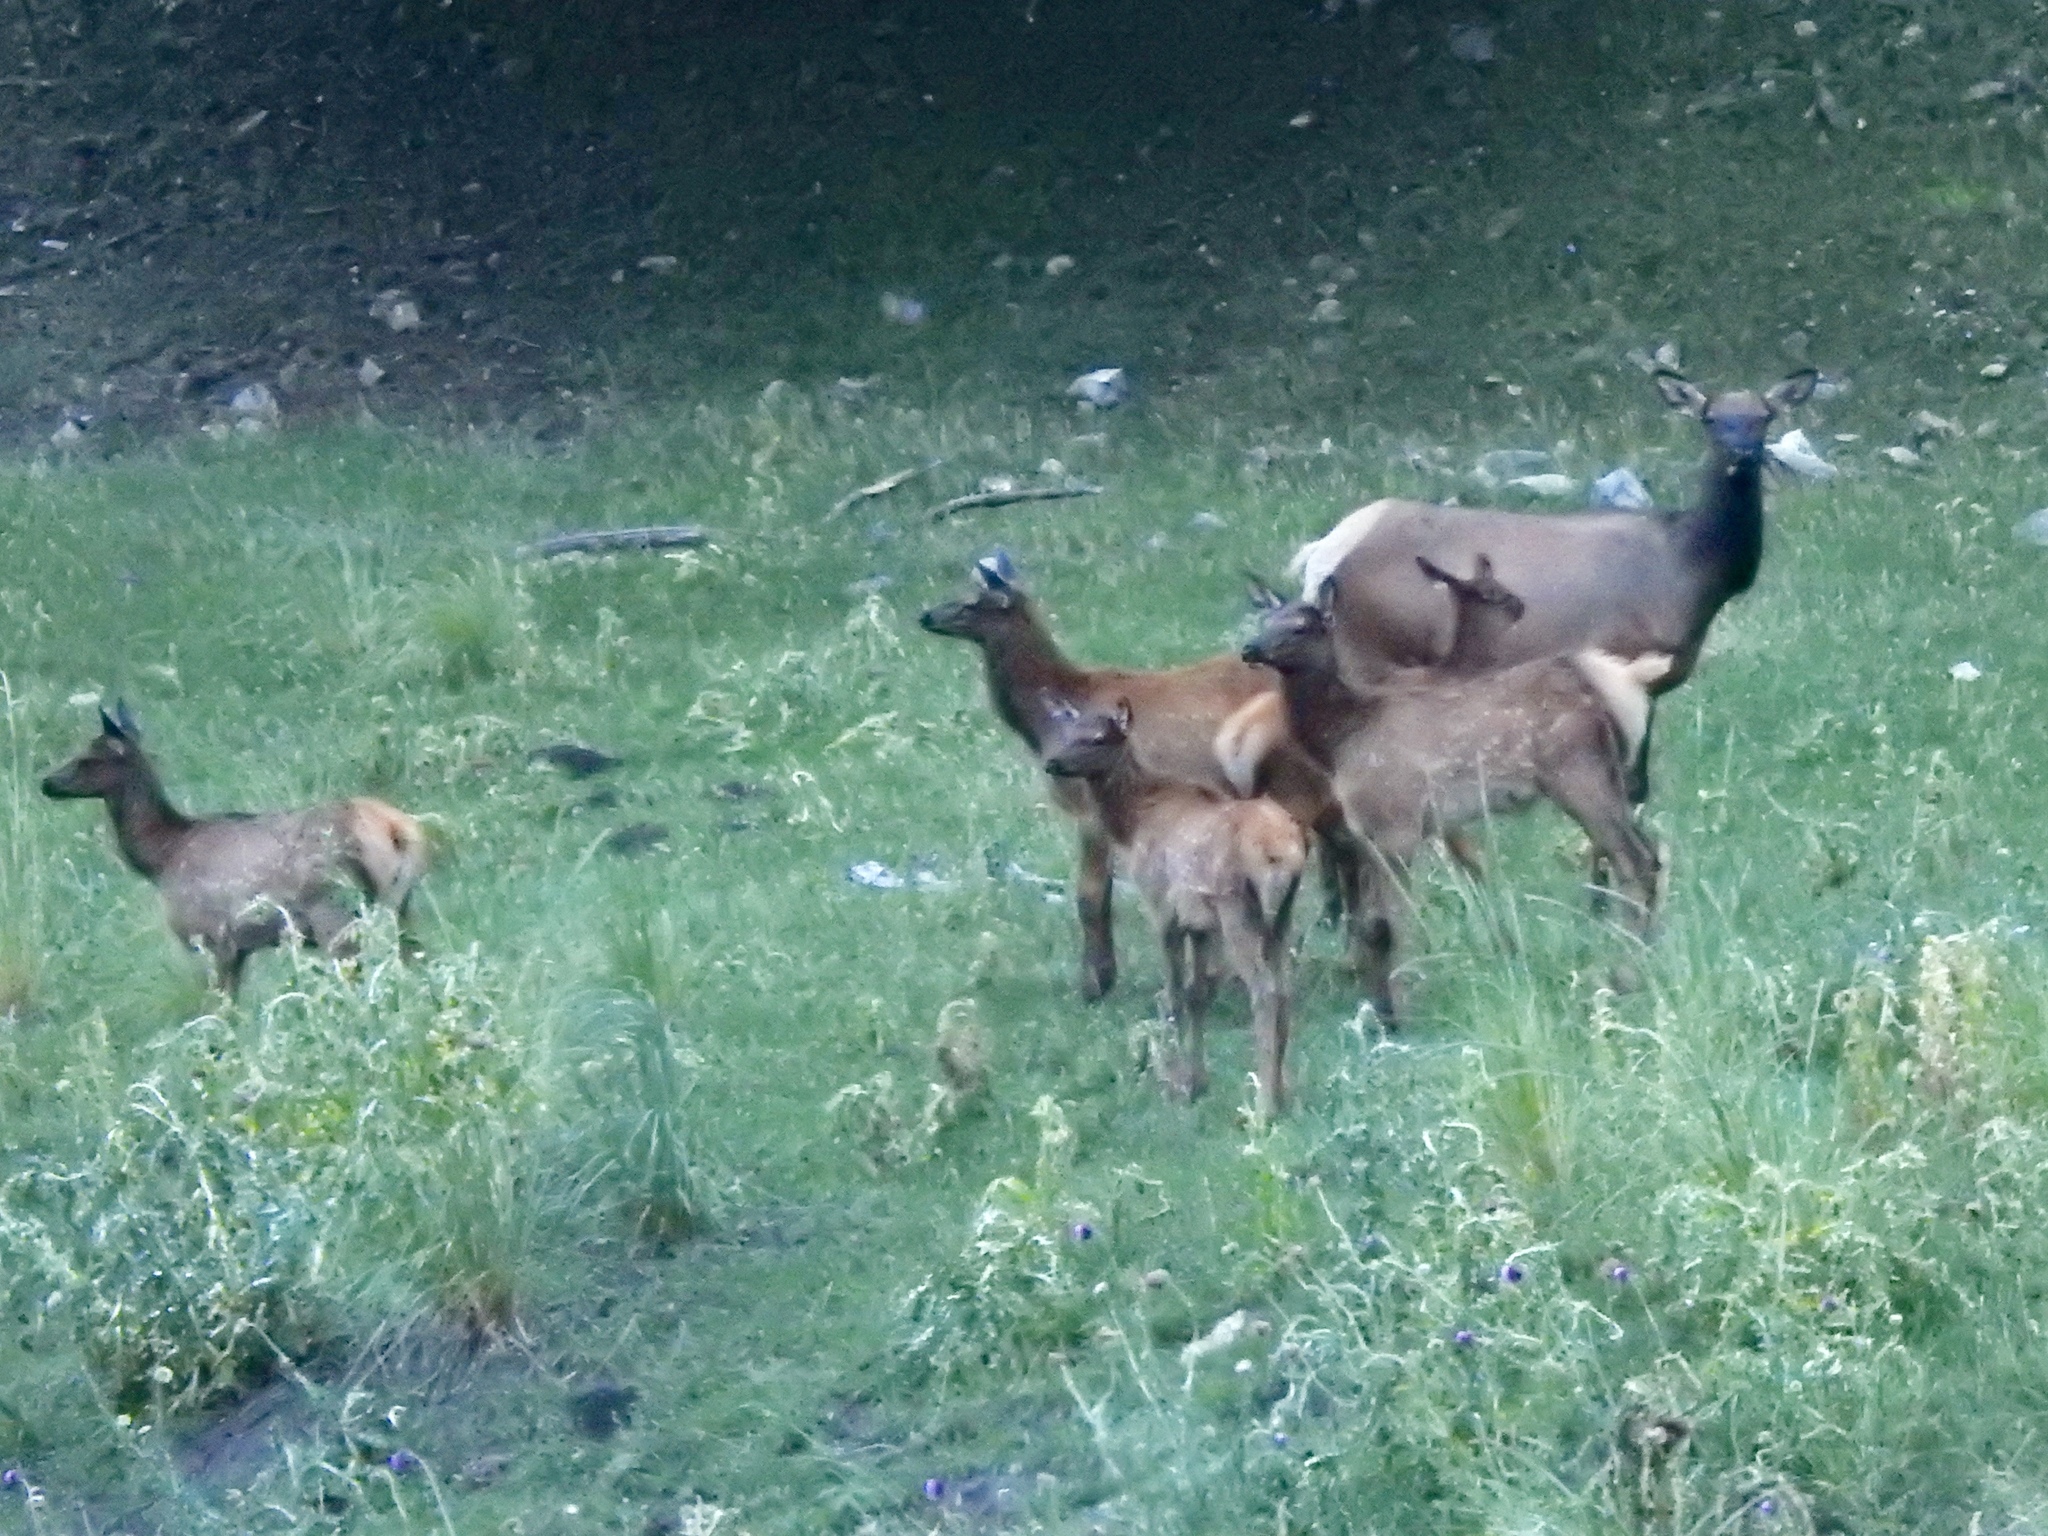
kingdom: Animalia
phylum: Chordata
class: Mammalia
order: Artiodactyla
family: Cervidae
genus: Cervus
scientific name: Cervus elaphus
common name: Red deer
